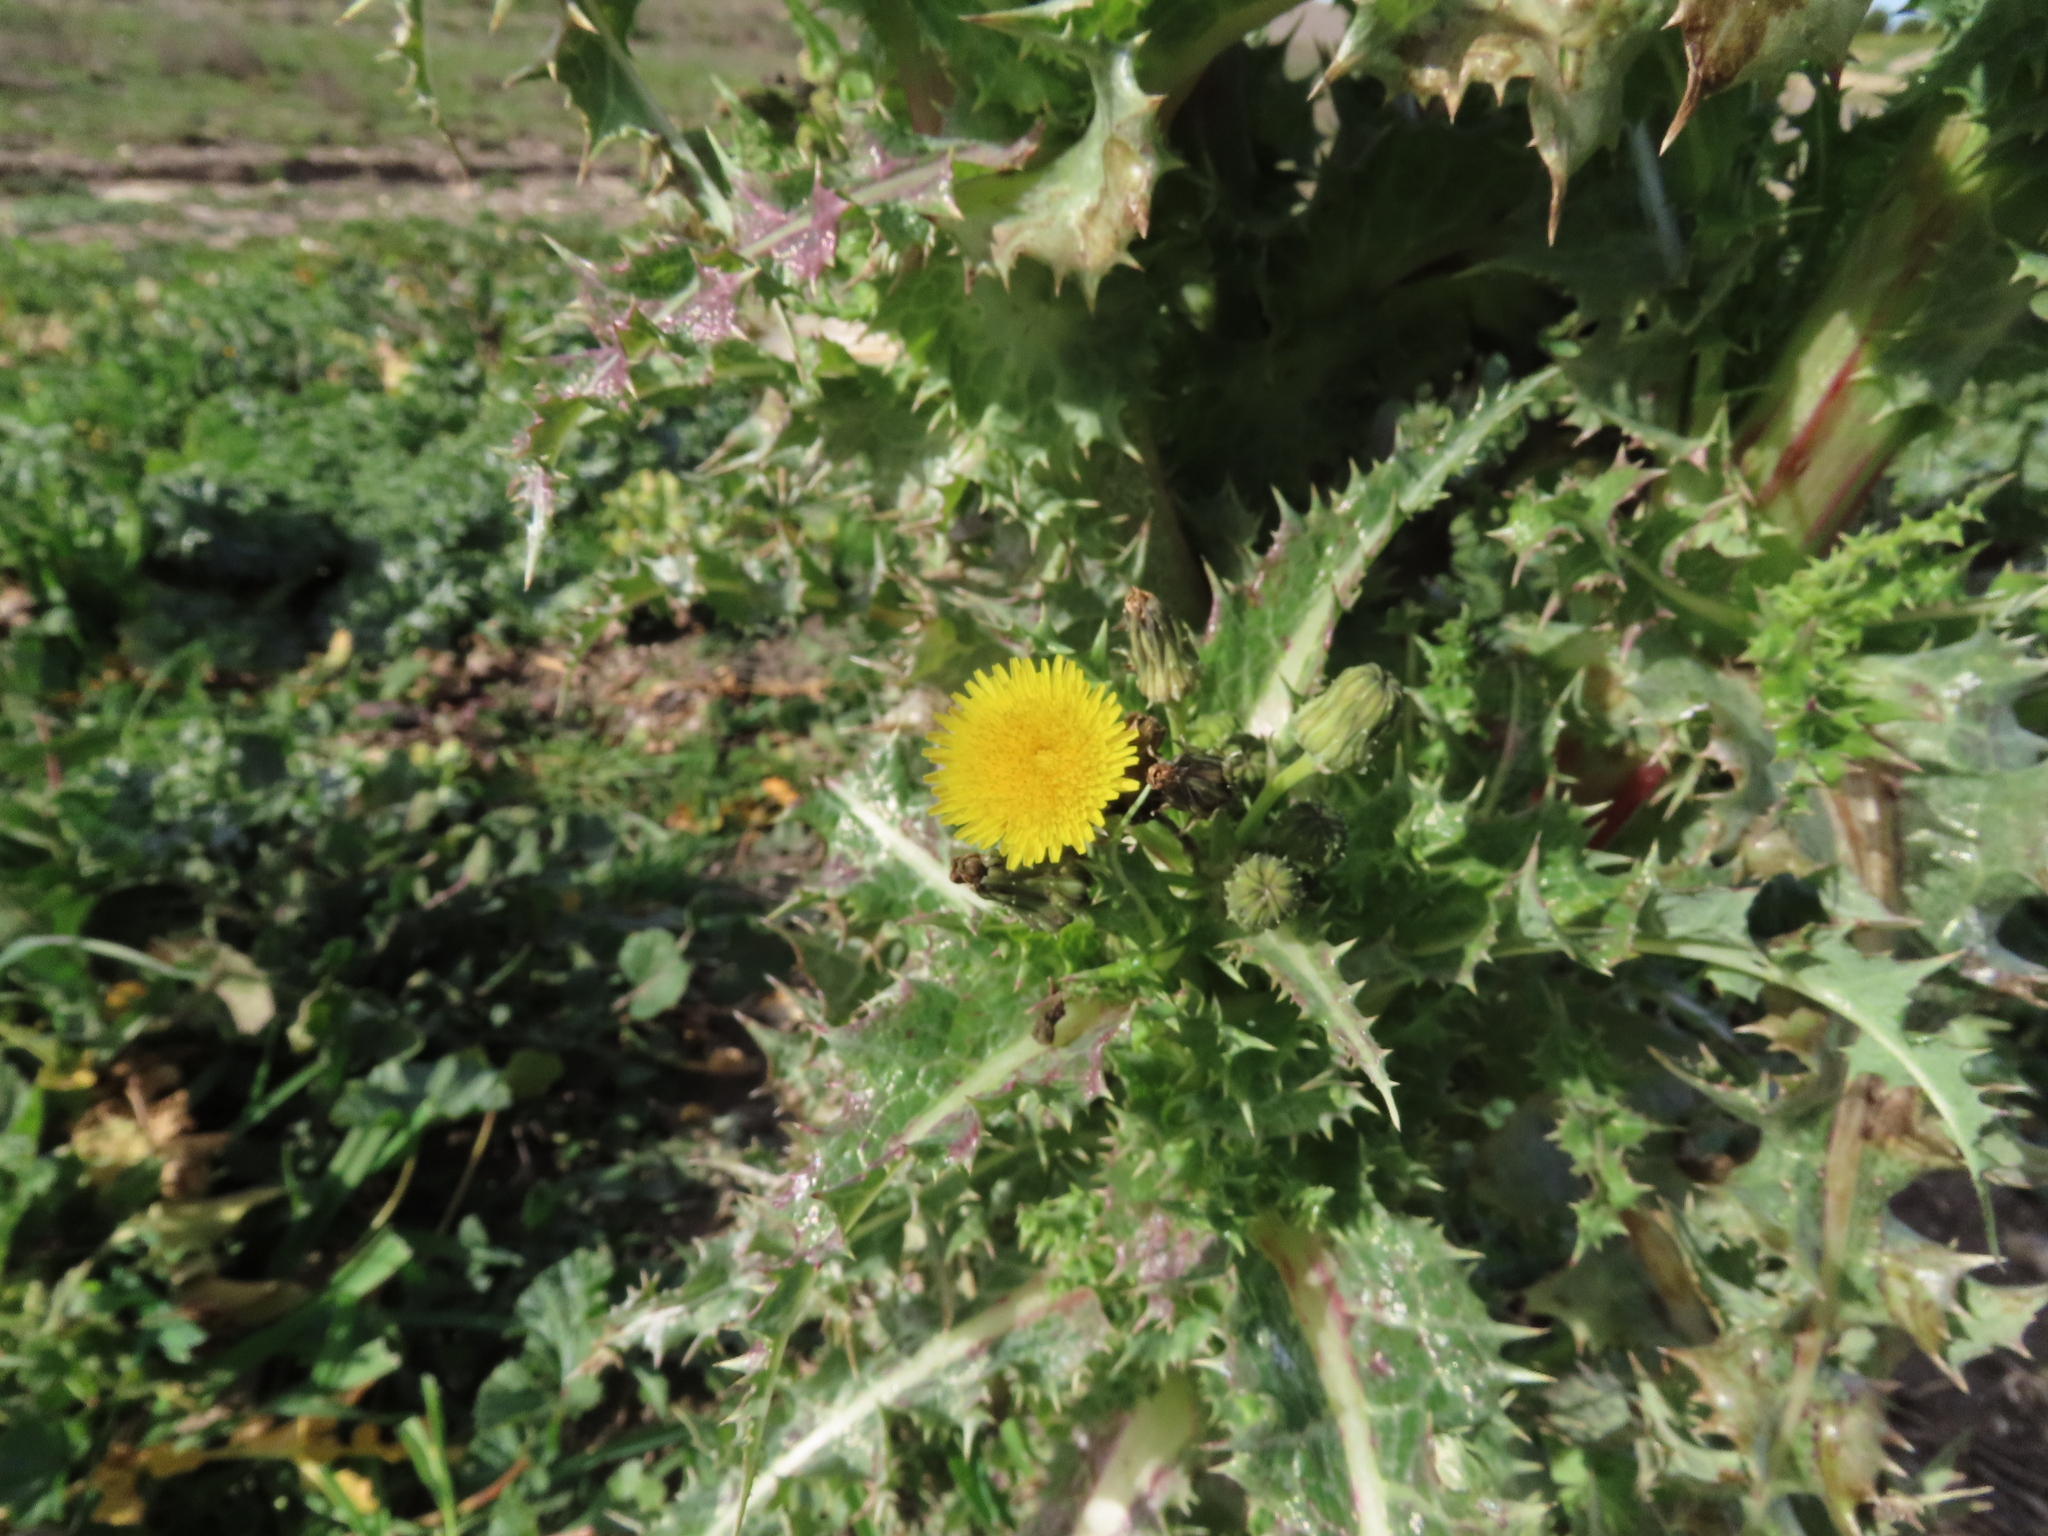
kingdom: Plantae
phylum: Tracheophyta
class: Magnoliopsida
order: Asterales
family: Asteraceae
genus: Sonchus
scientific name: Sonchus asper
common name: Prickly sow-thistle
